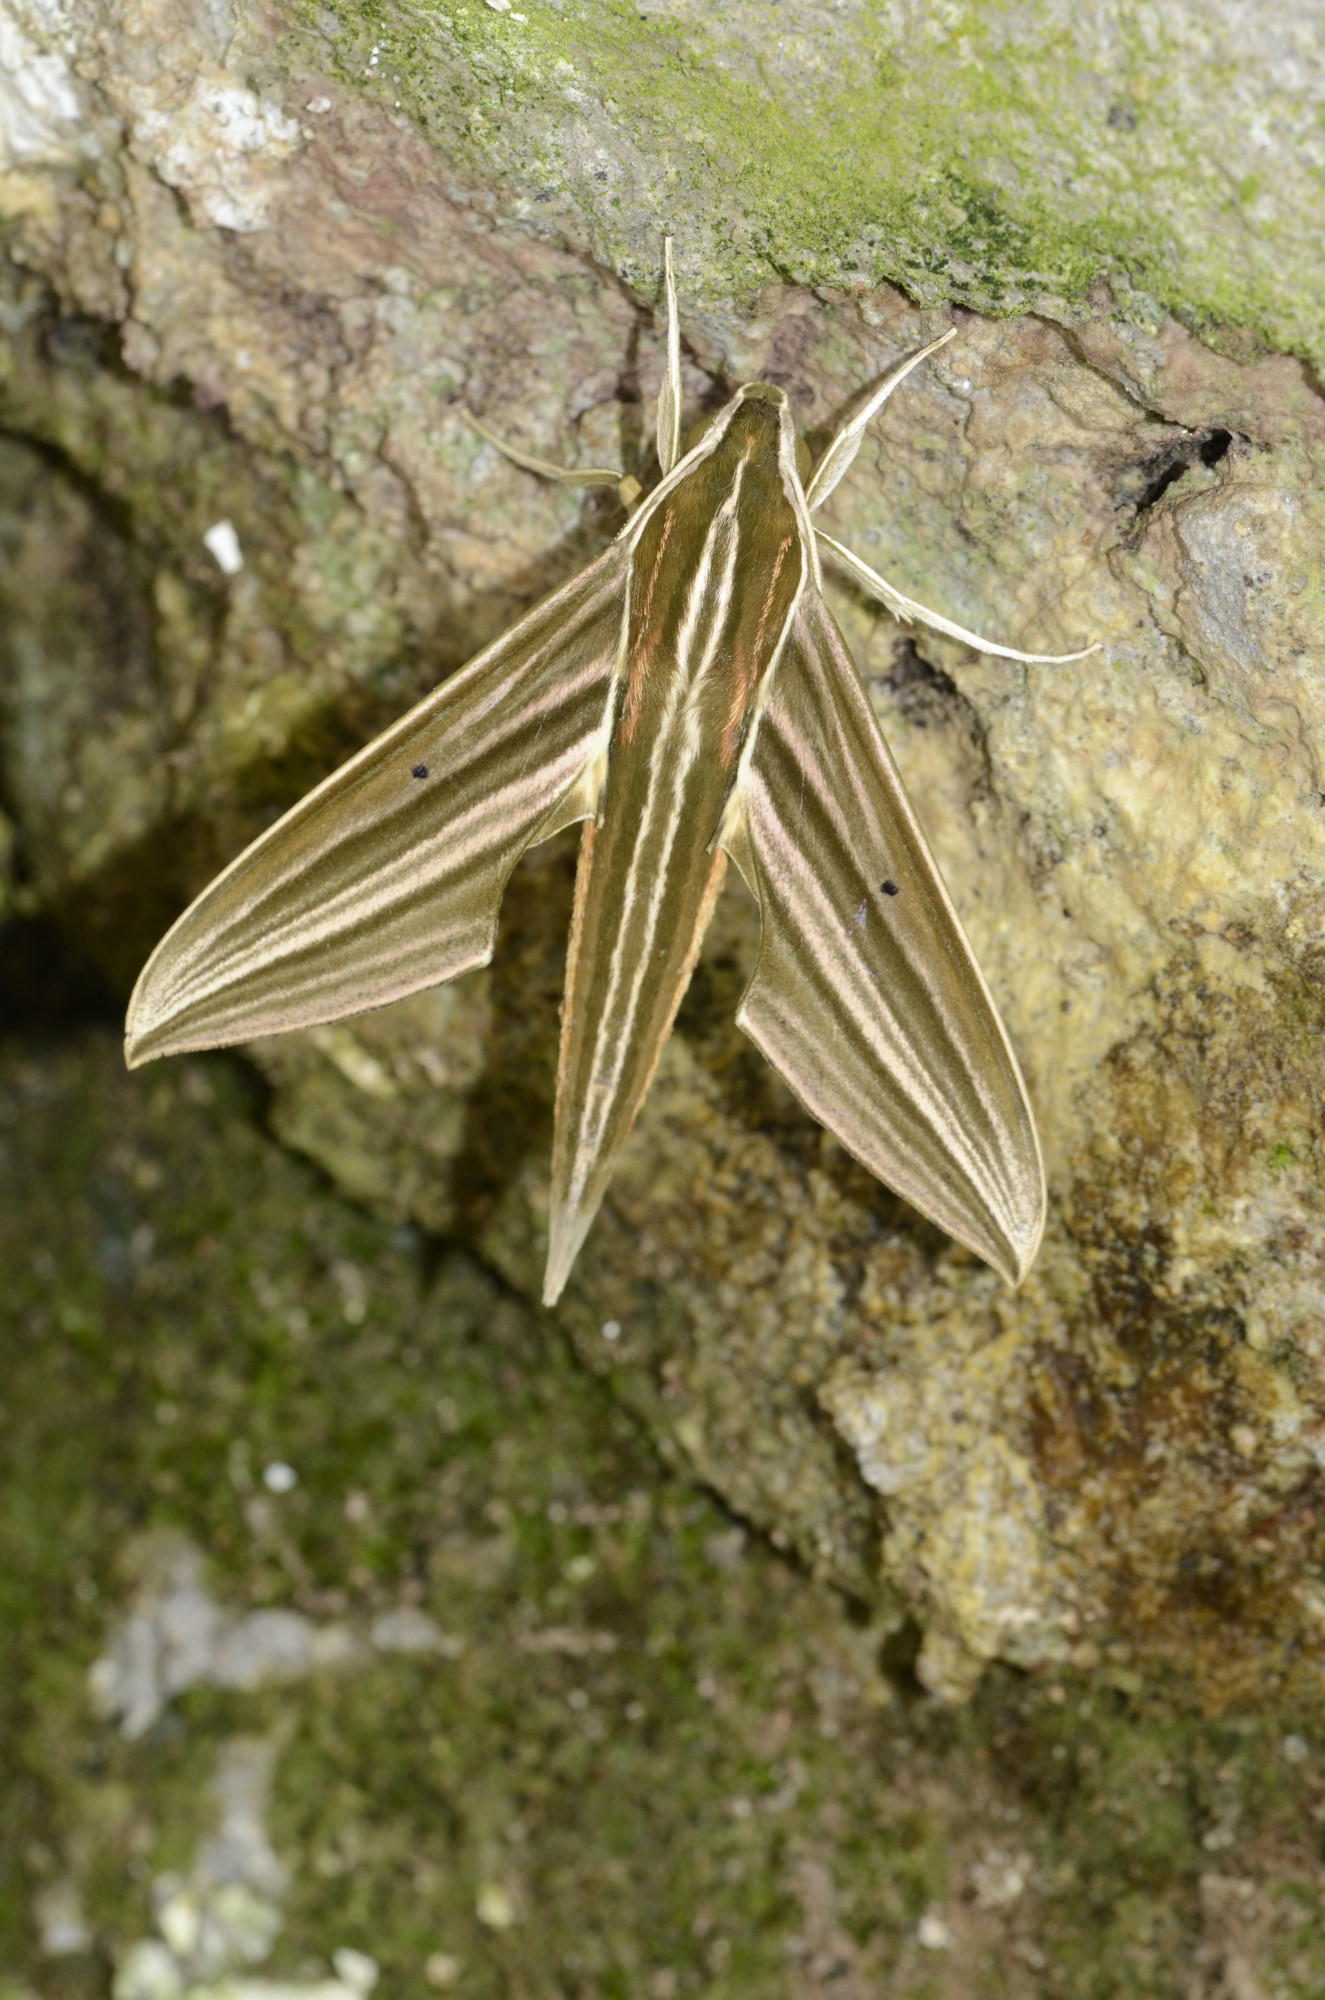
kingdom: Animalia
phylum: Arthropoda
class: Insecta
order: Lepidoptera
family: Sphingidae
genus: Xylophanes
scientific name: Xylophanes titana
